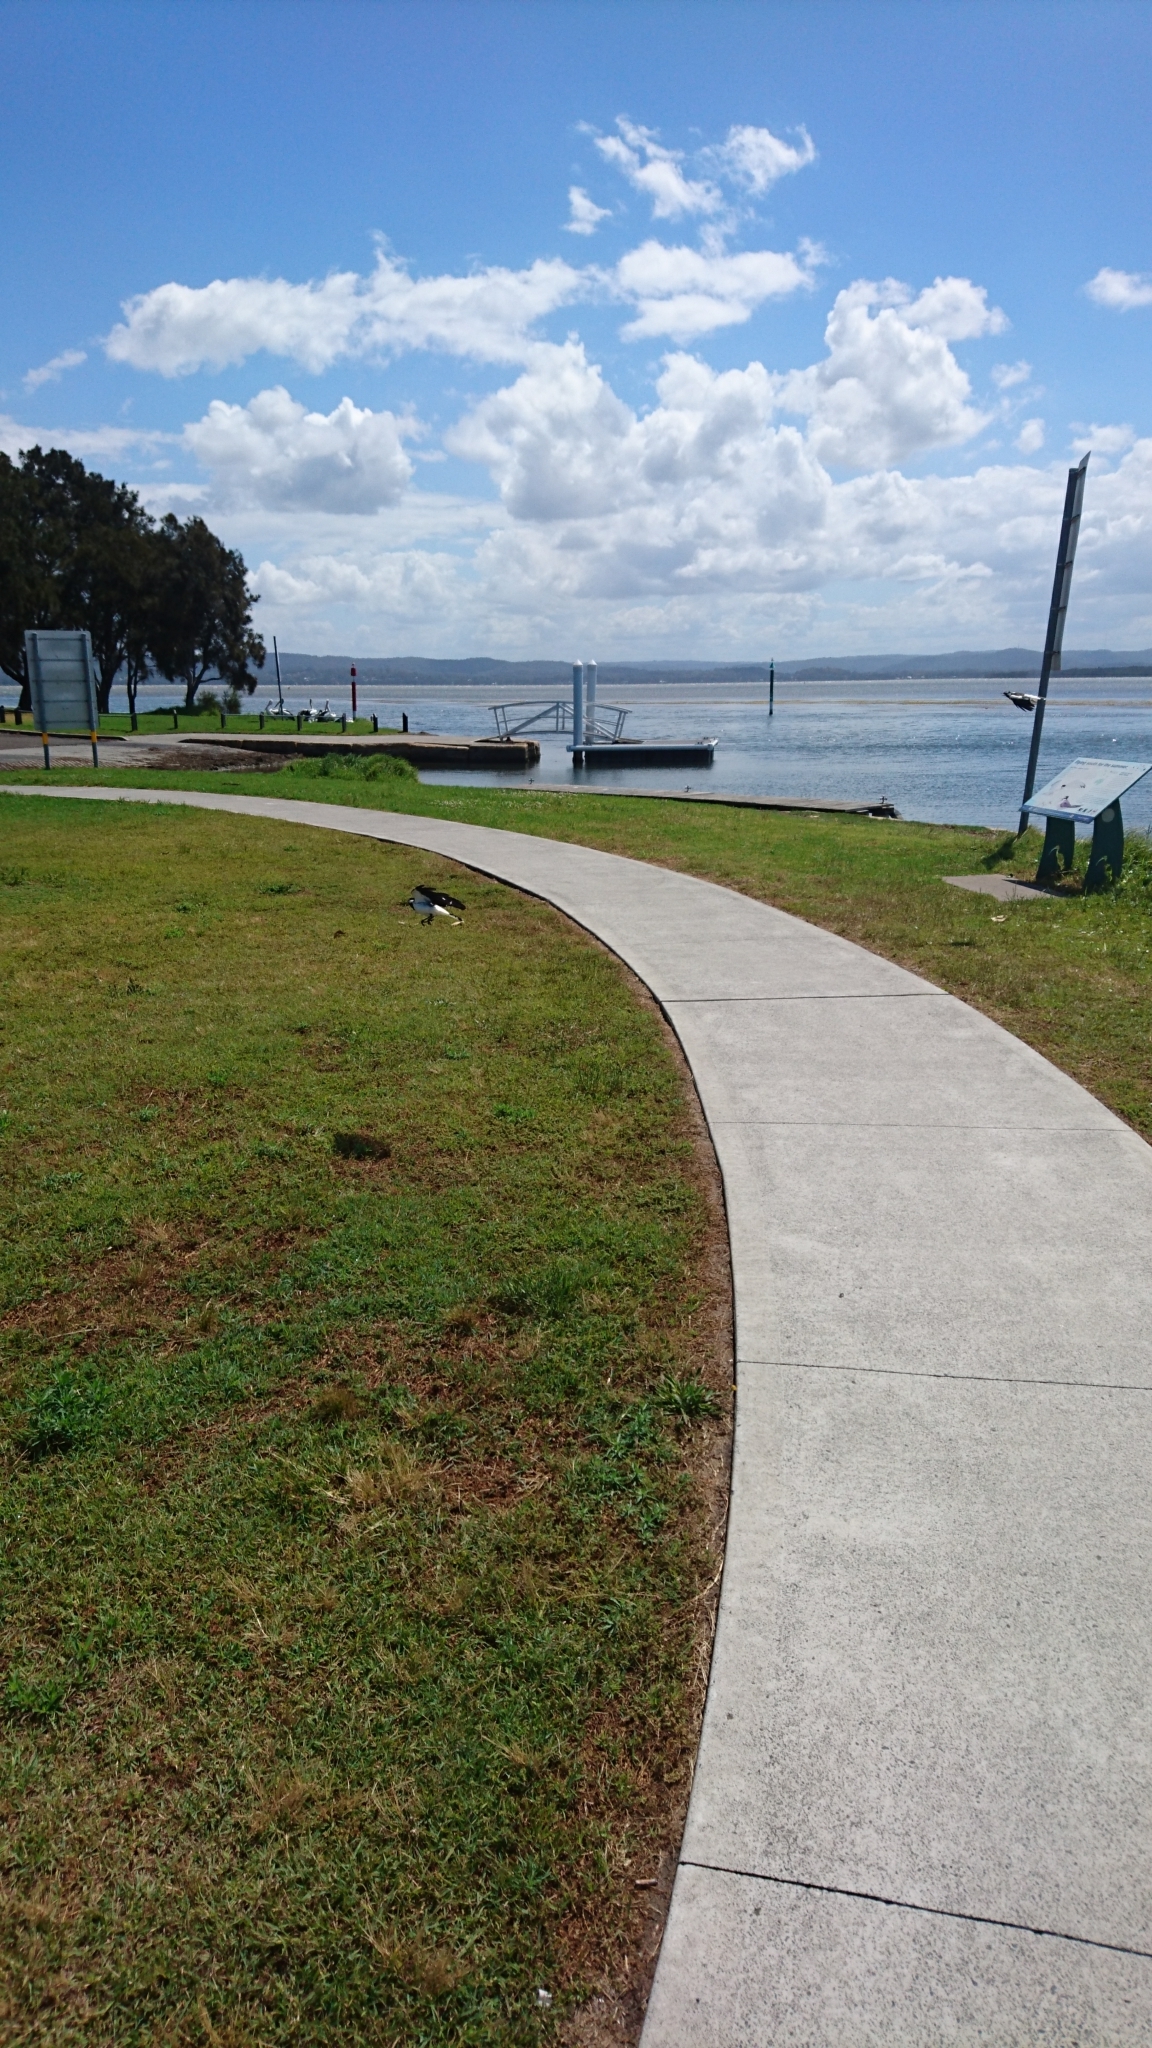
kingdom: Animalia
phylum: Chordata
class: Aves
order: Passeriformes
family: Monarchidae
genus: Grallina
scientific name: Grallina cyanoleuca
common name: Magpie-lark
